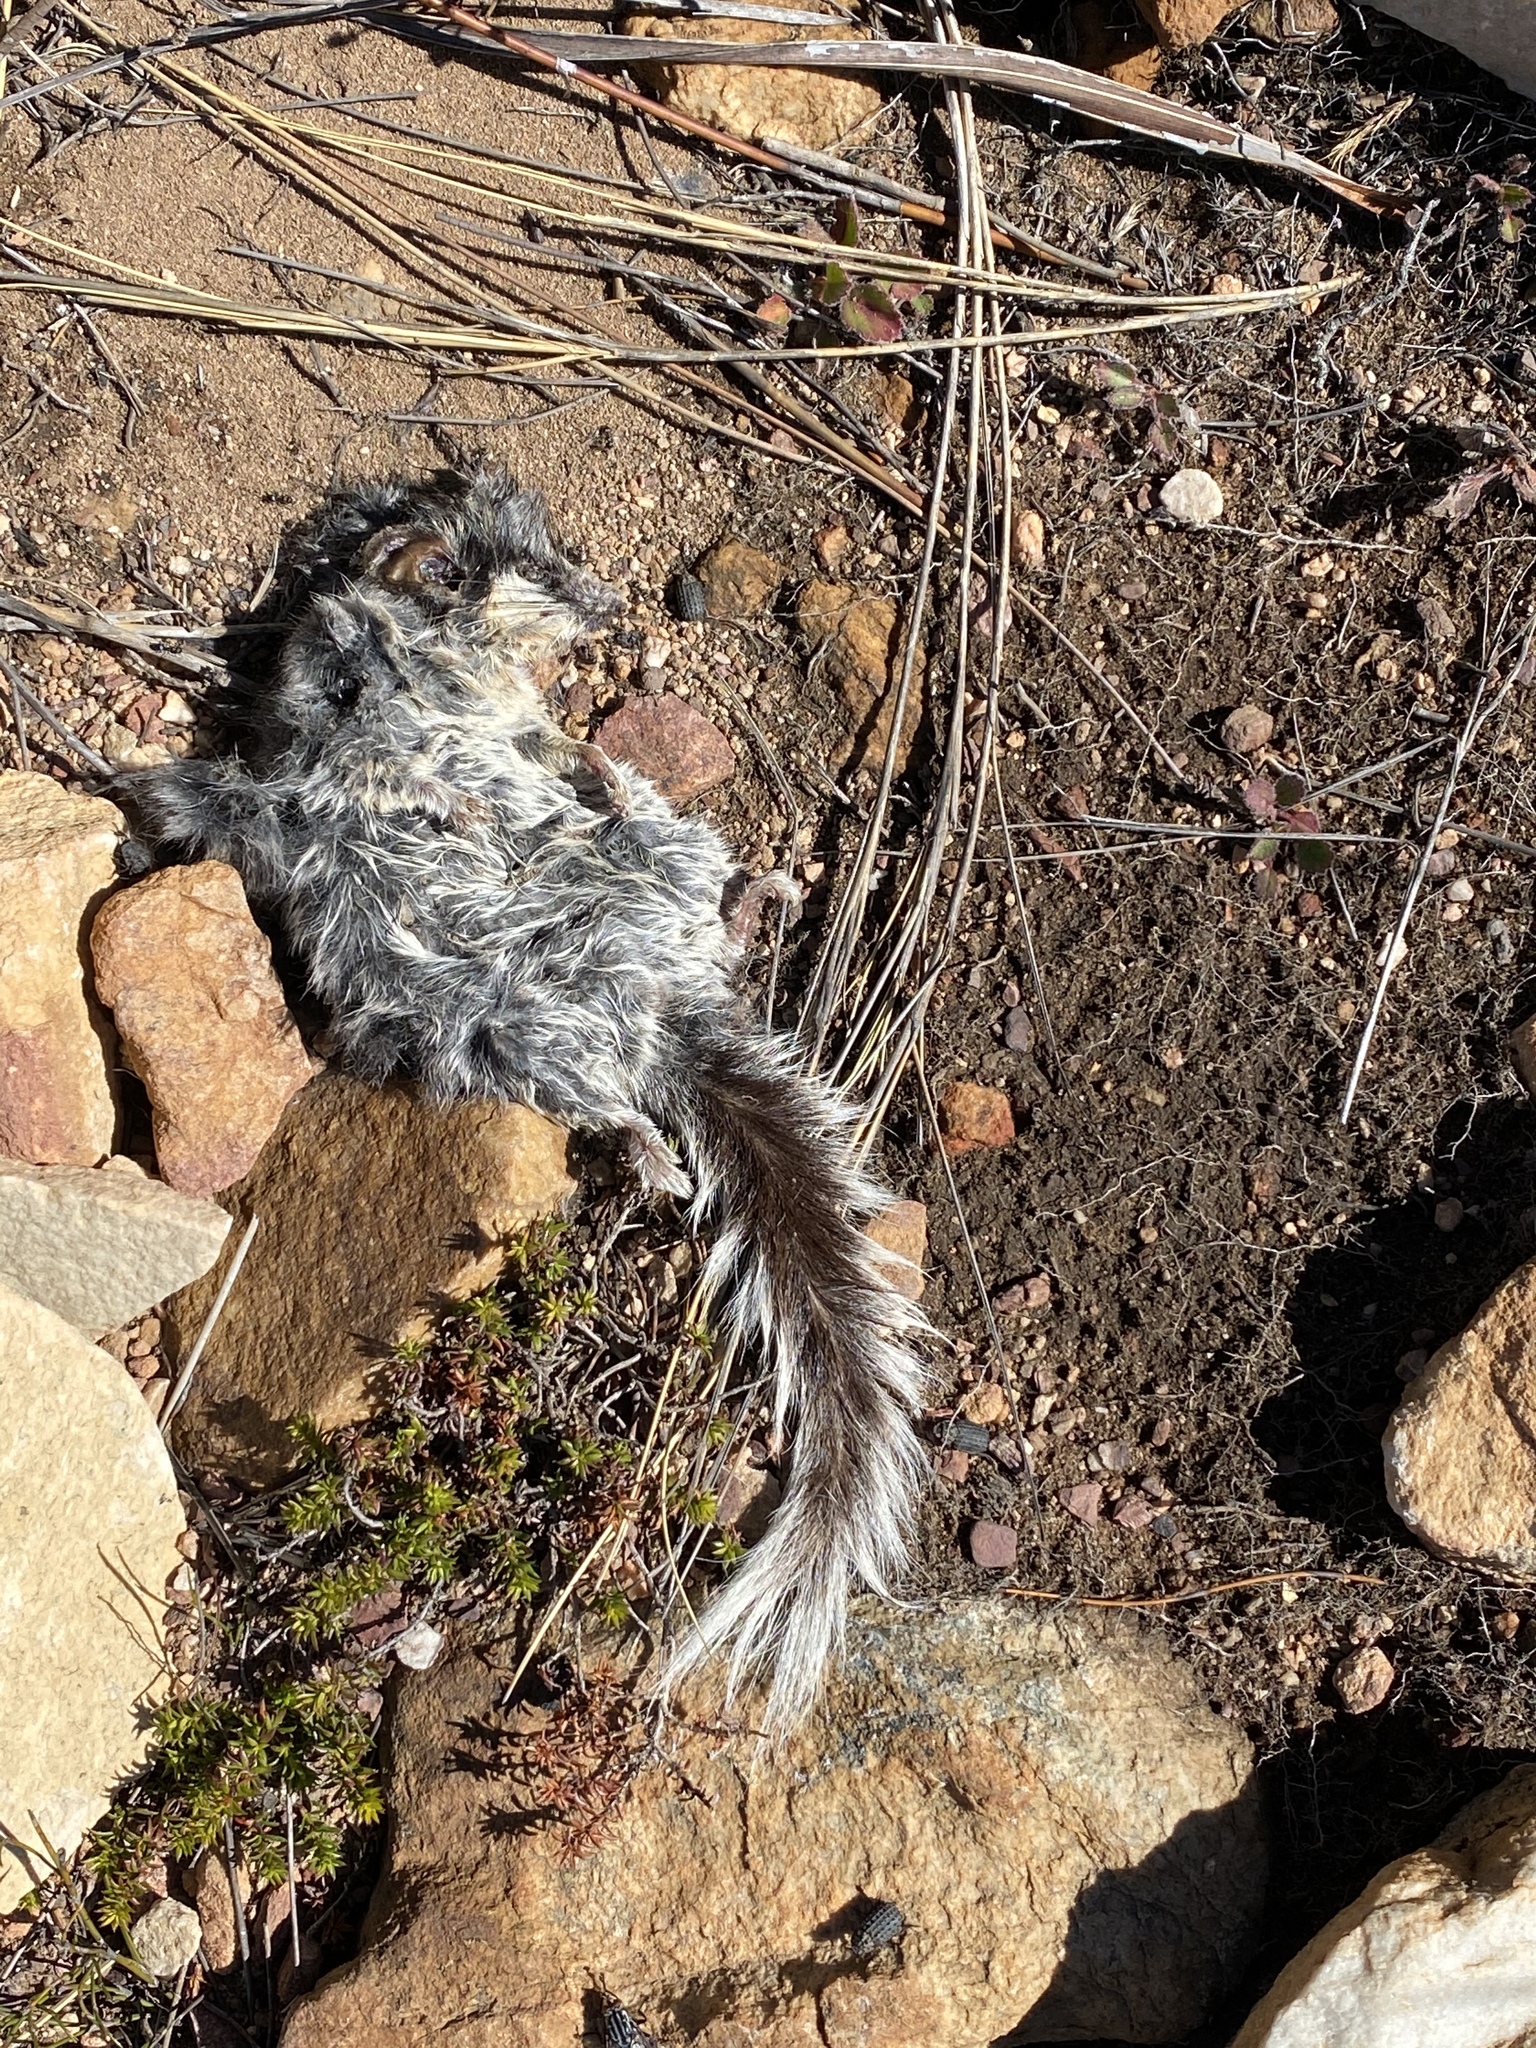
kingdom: Animalia
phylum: Chordata
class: Mammalia
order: Rodentia
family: Gliridae
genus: Graphiurus
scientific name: Graphiurus ocularis
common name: Spectacled african dormouse
